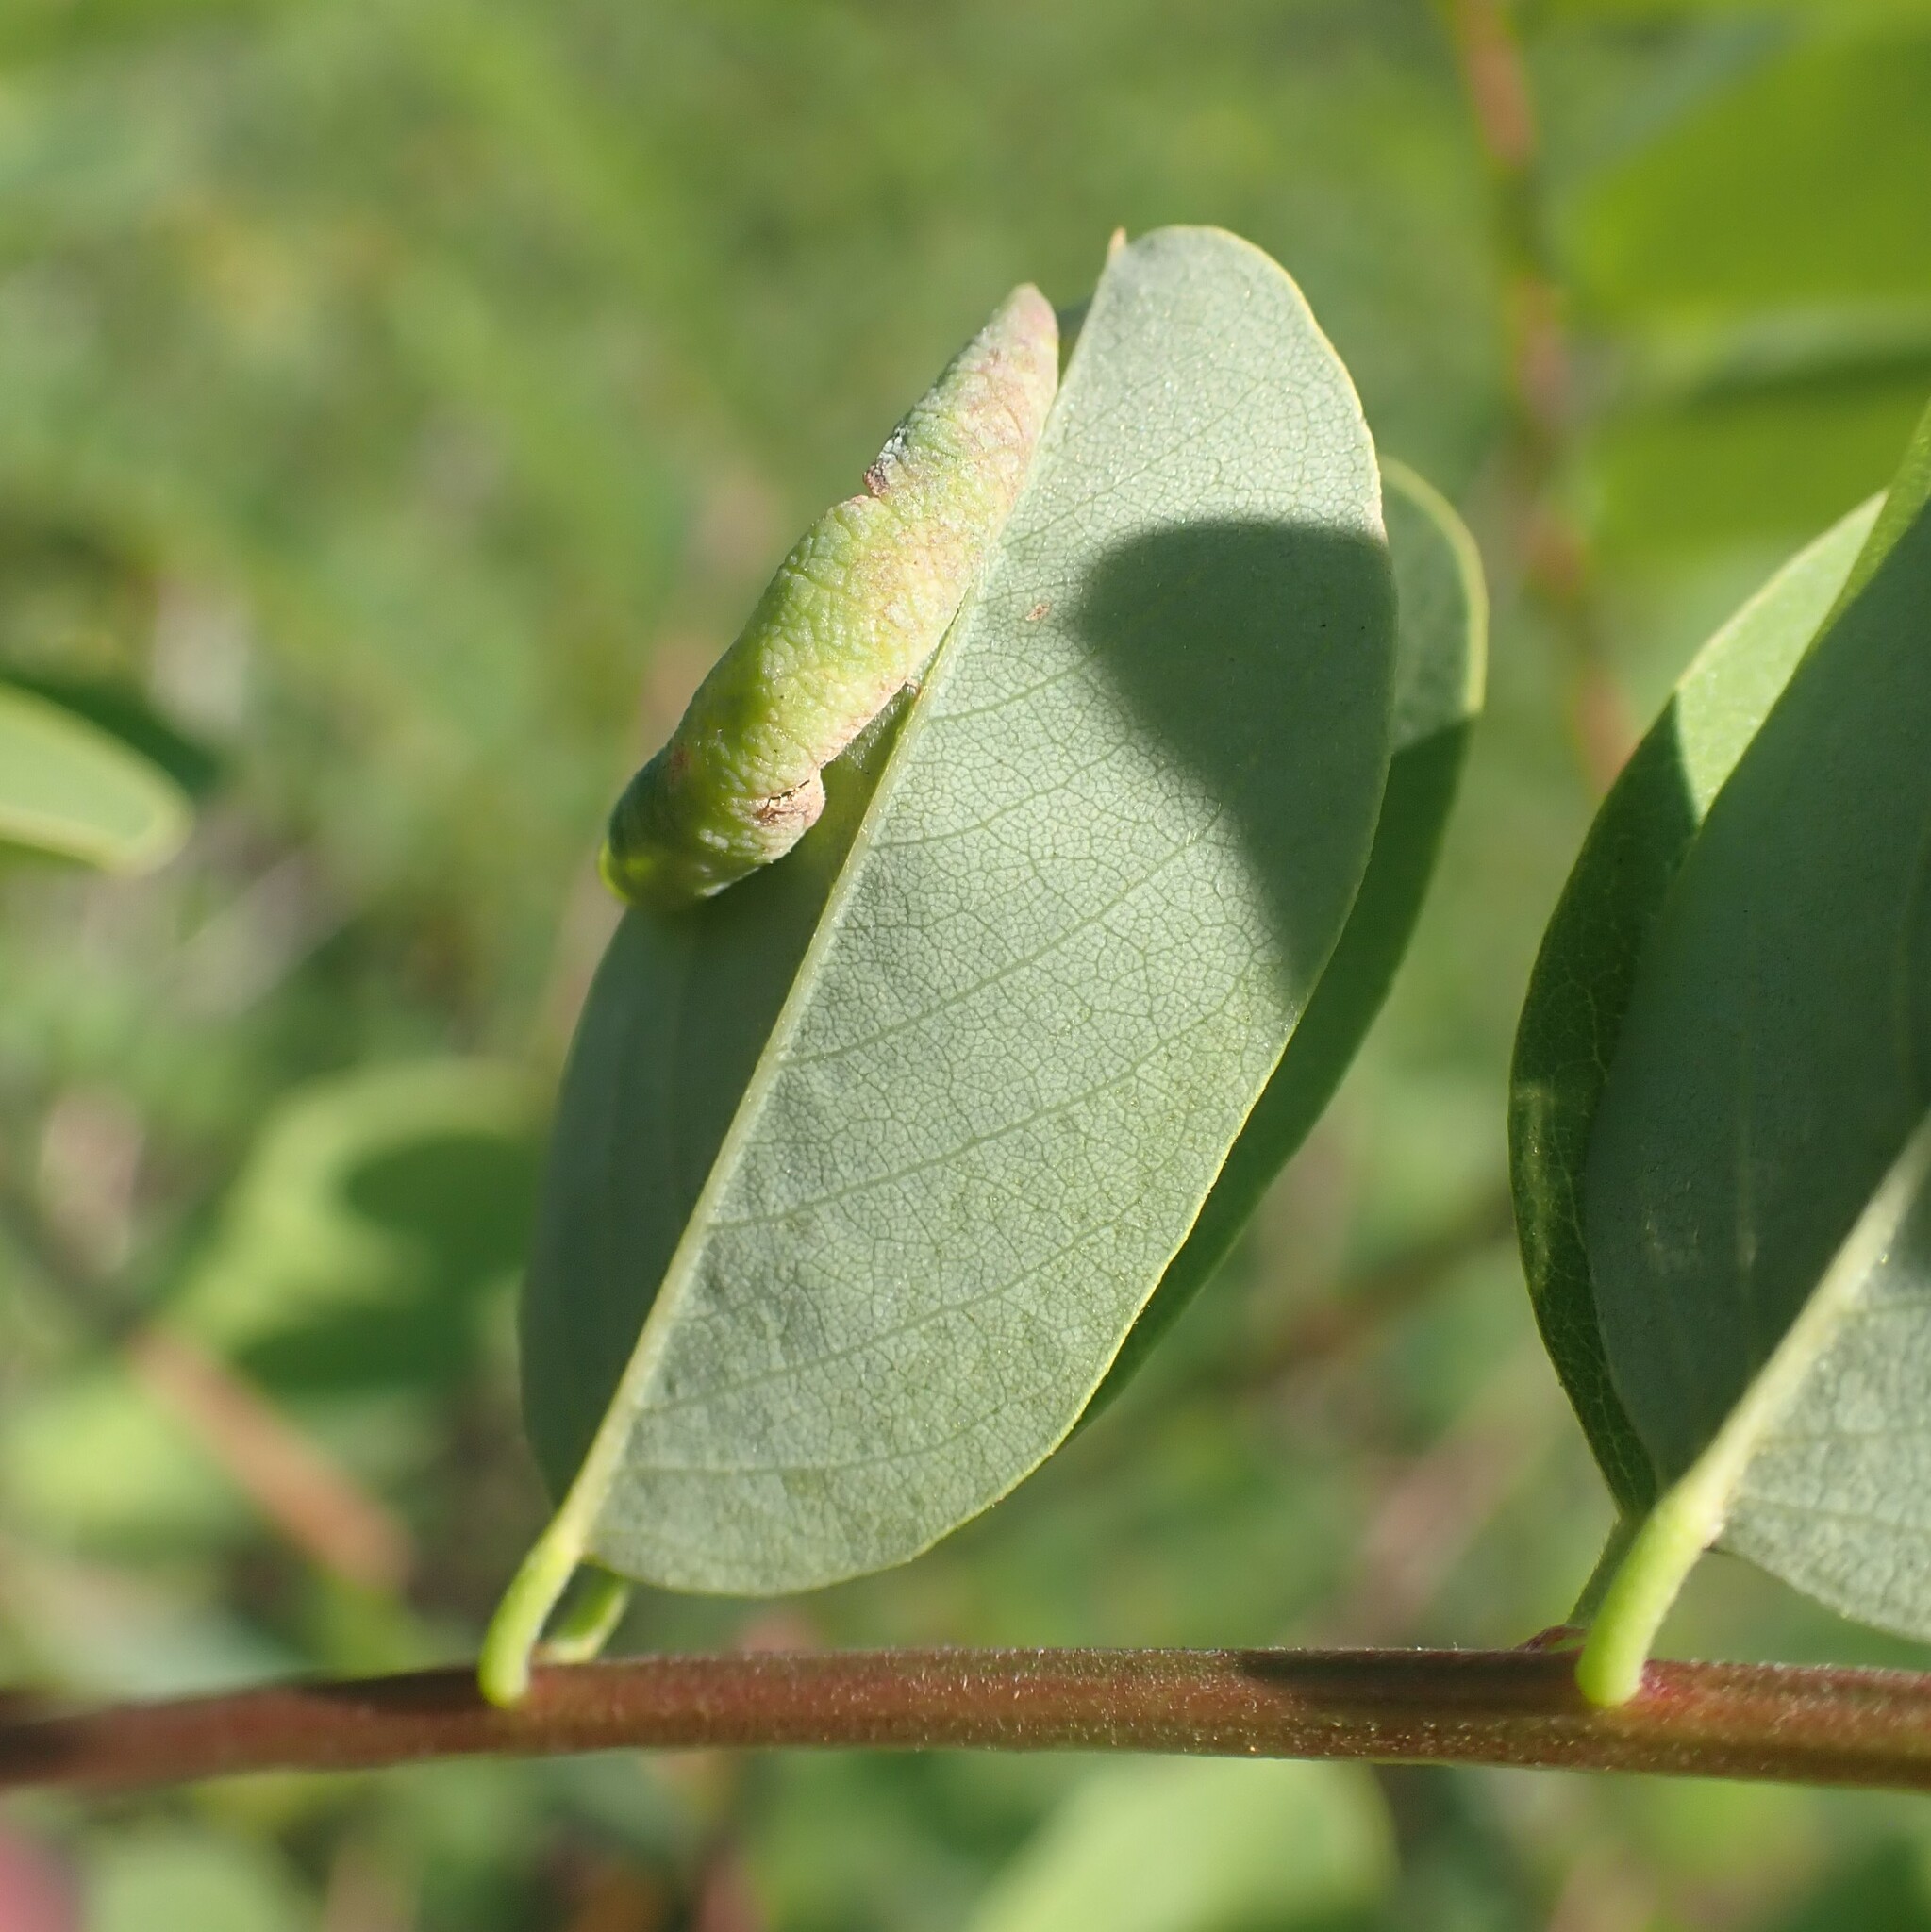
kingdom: Animalia
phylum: Arthropoda
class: Insecta
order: Diptera
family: Cecidomyiidae
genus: Obolodiplosis
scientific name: Obolodiplosis robiniae
